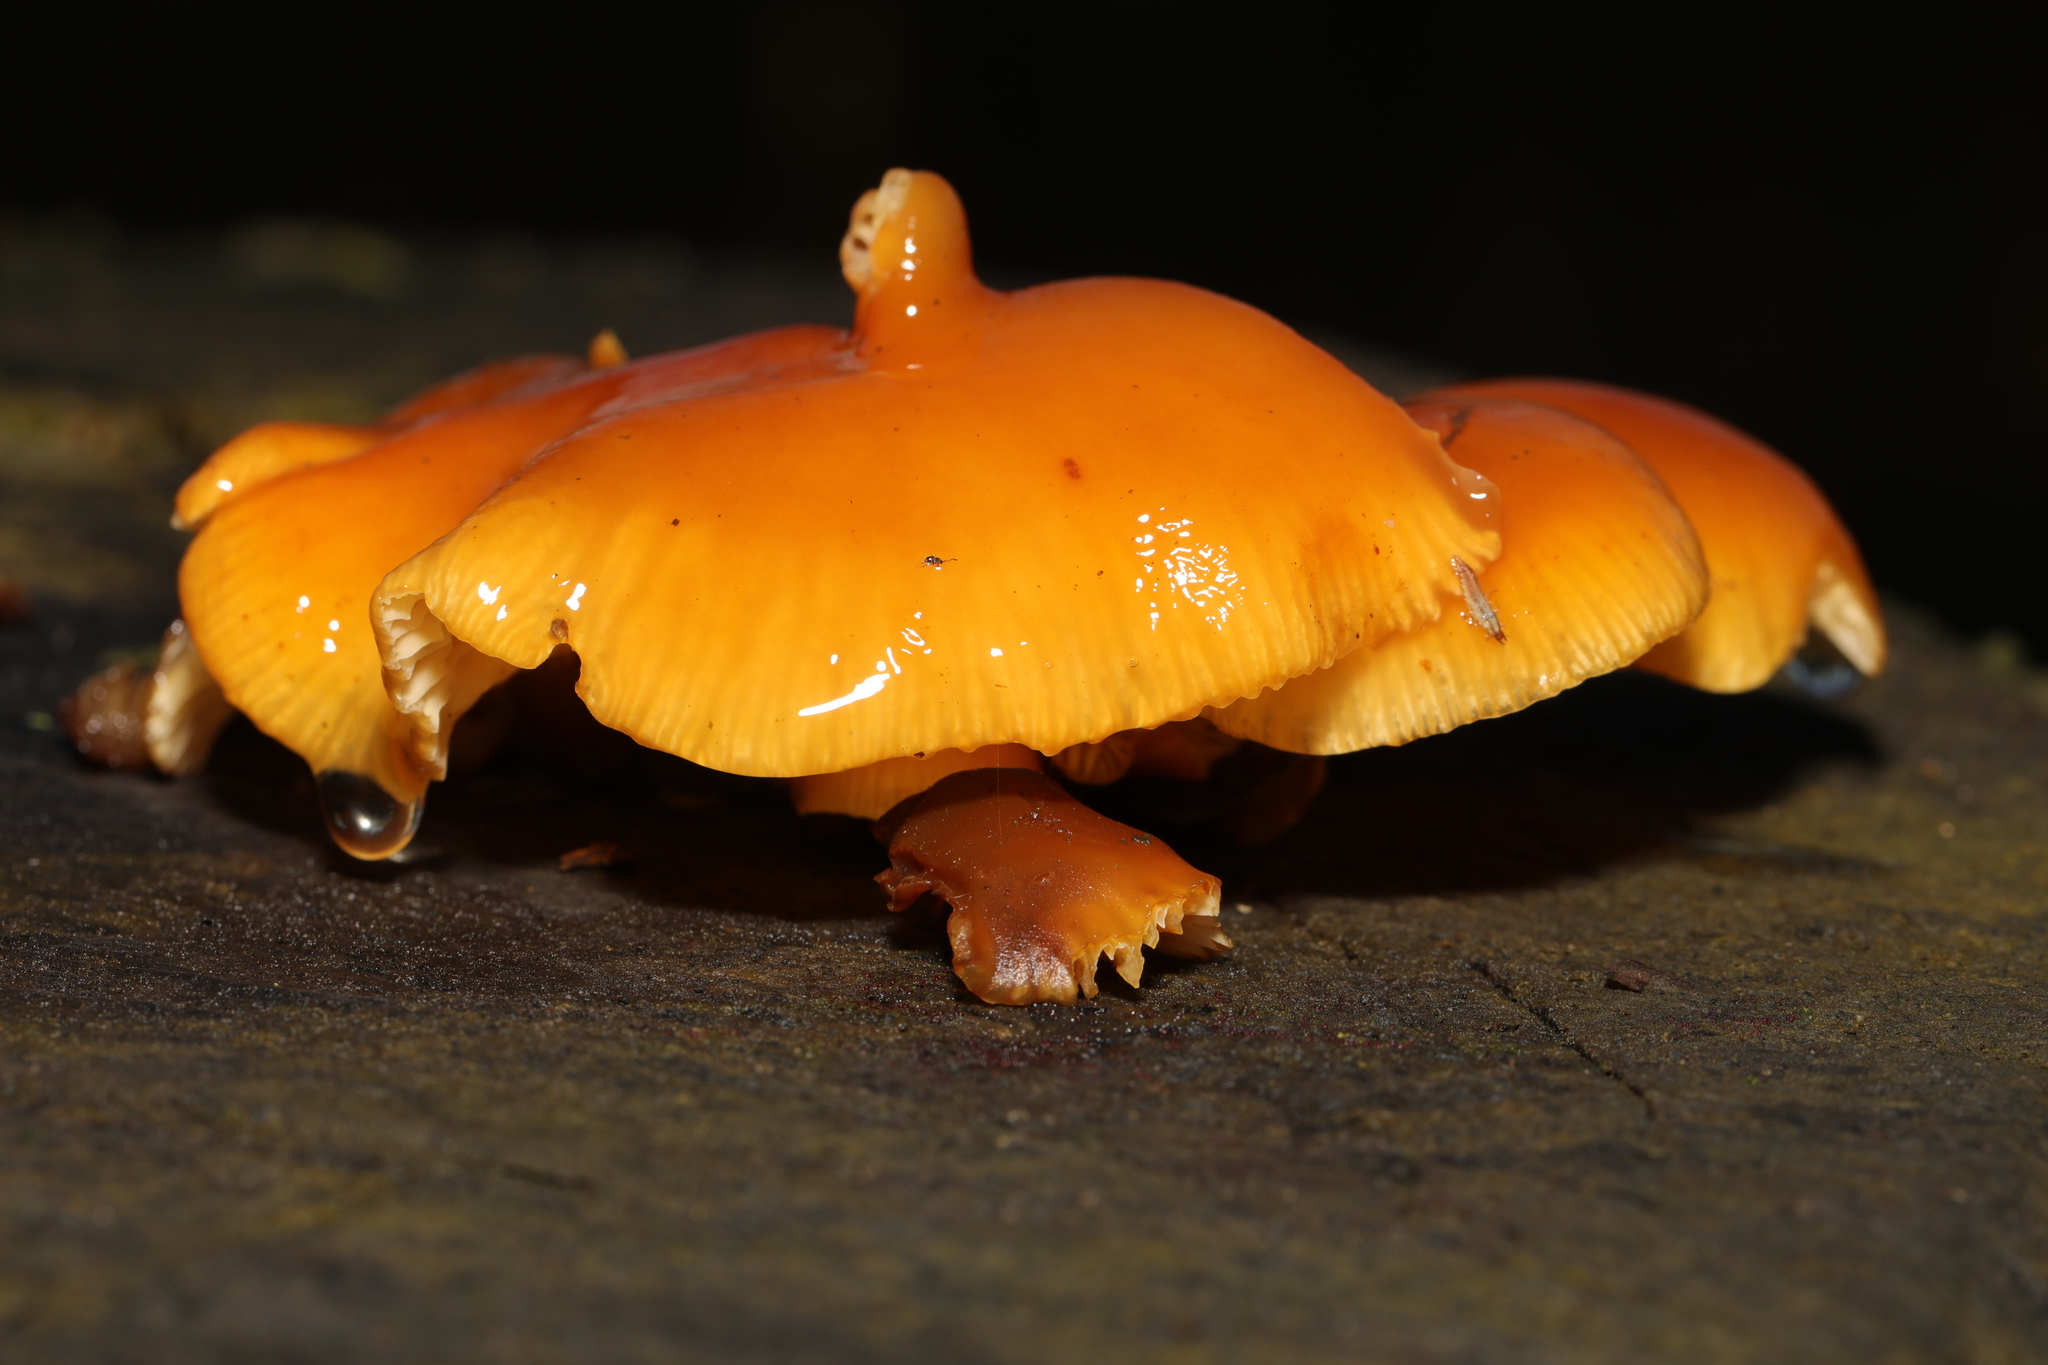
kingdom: Fungi
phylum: Basidiomycota
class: Agaricomycetes
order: Agaricales
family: Physalacriaceae
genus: Flammulina
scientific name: Flammulina
